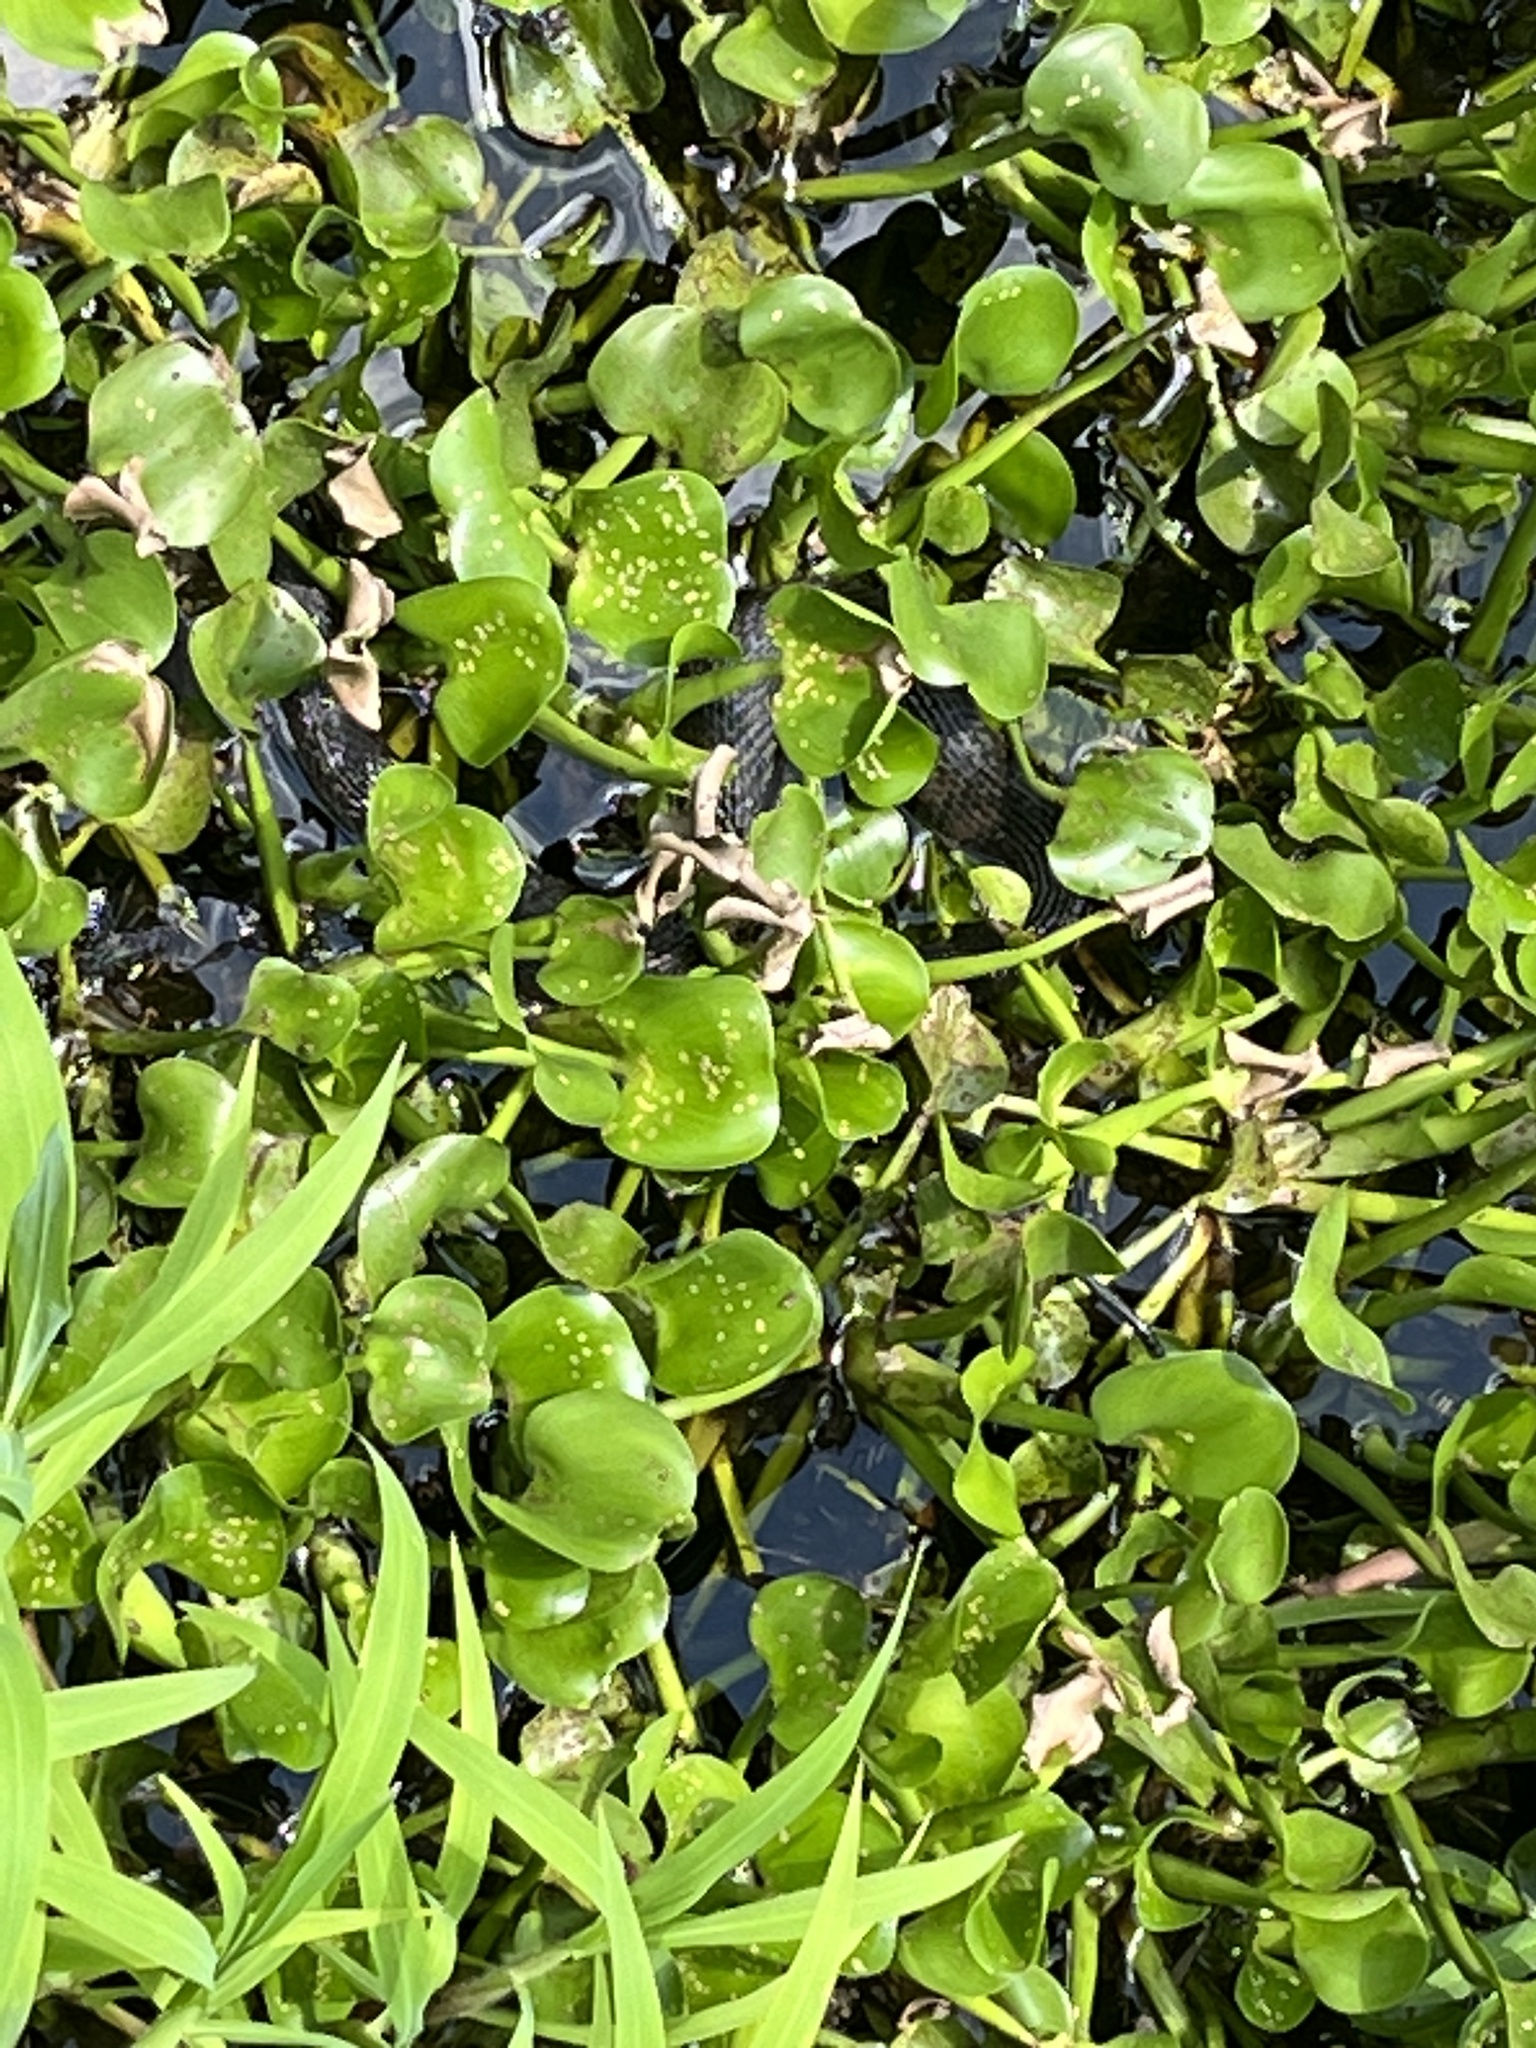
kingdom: Animalia
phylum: Chordata
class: Squamata
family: Colubridae
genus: Nerodia
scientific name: Nerodia fasciata
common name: Southern water snake
